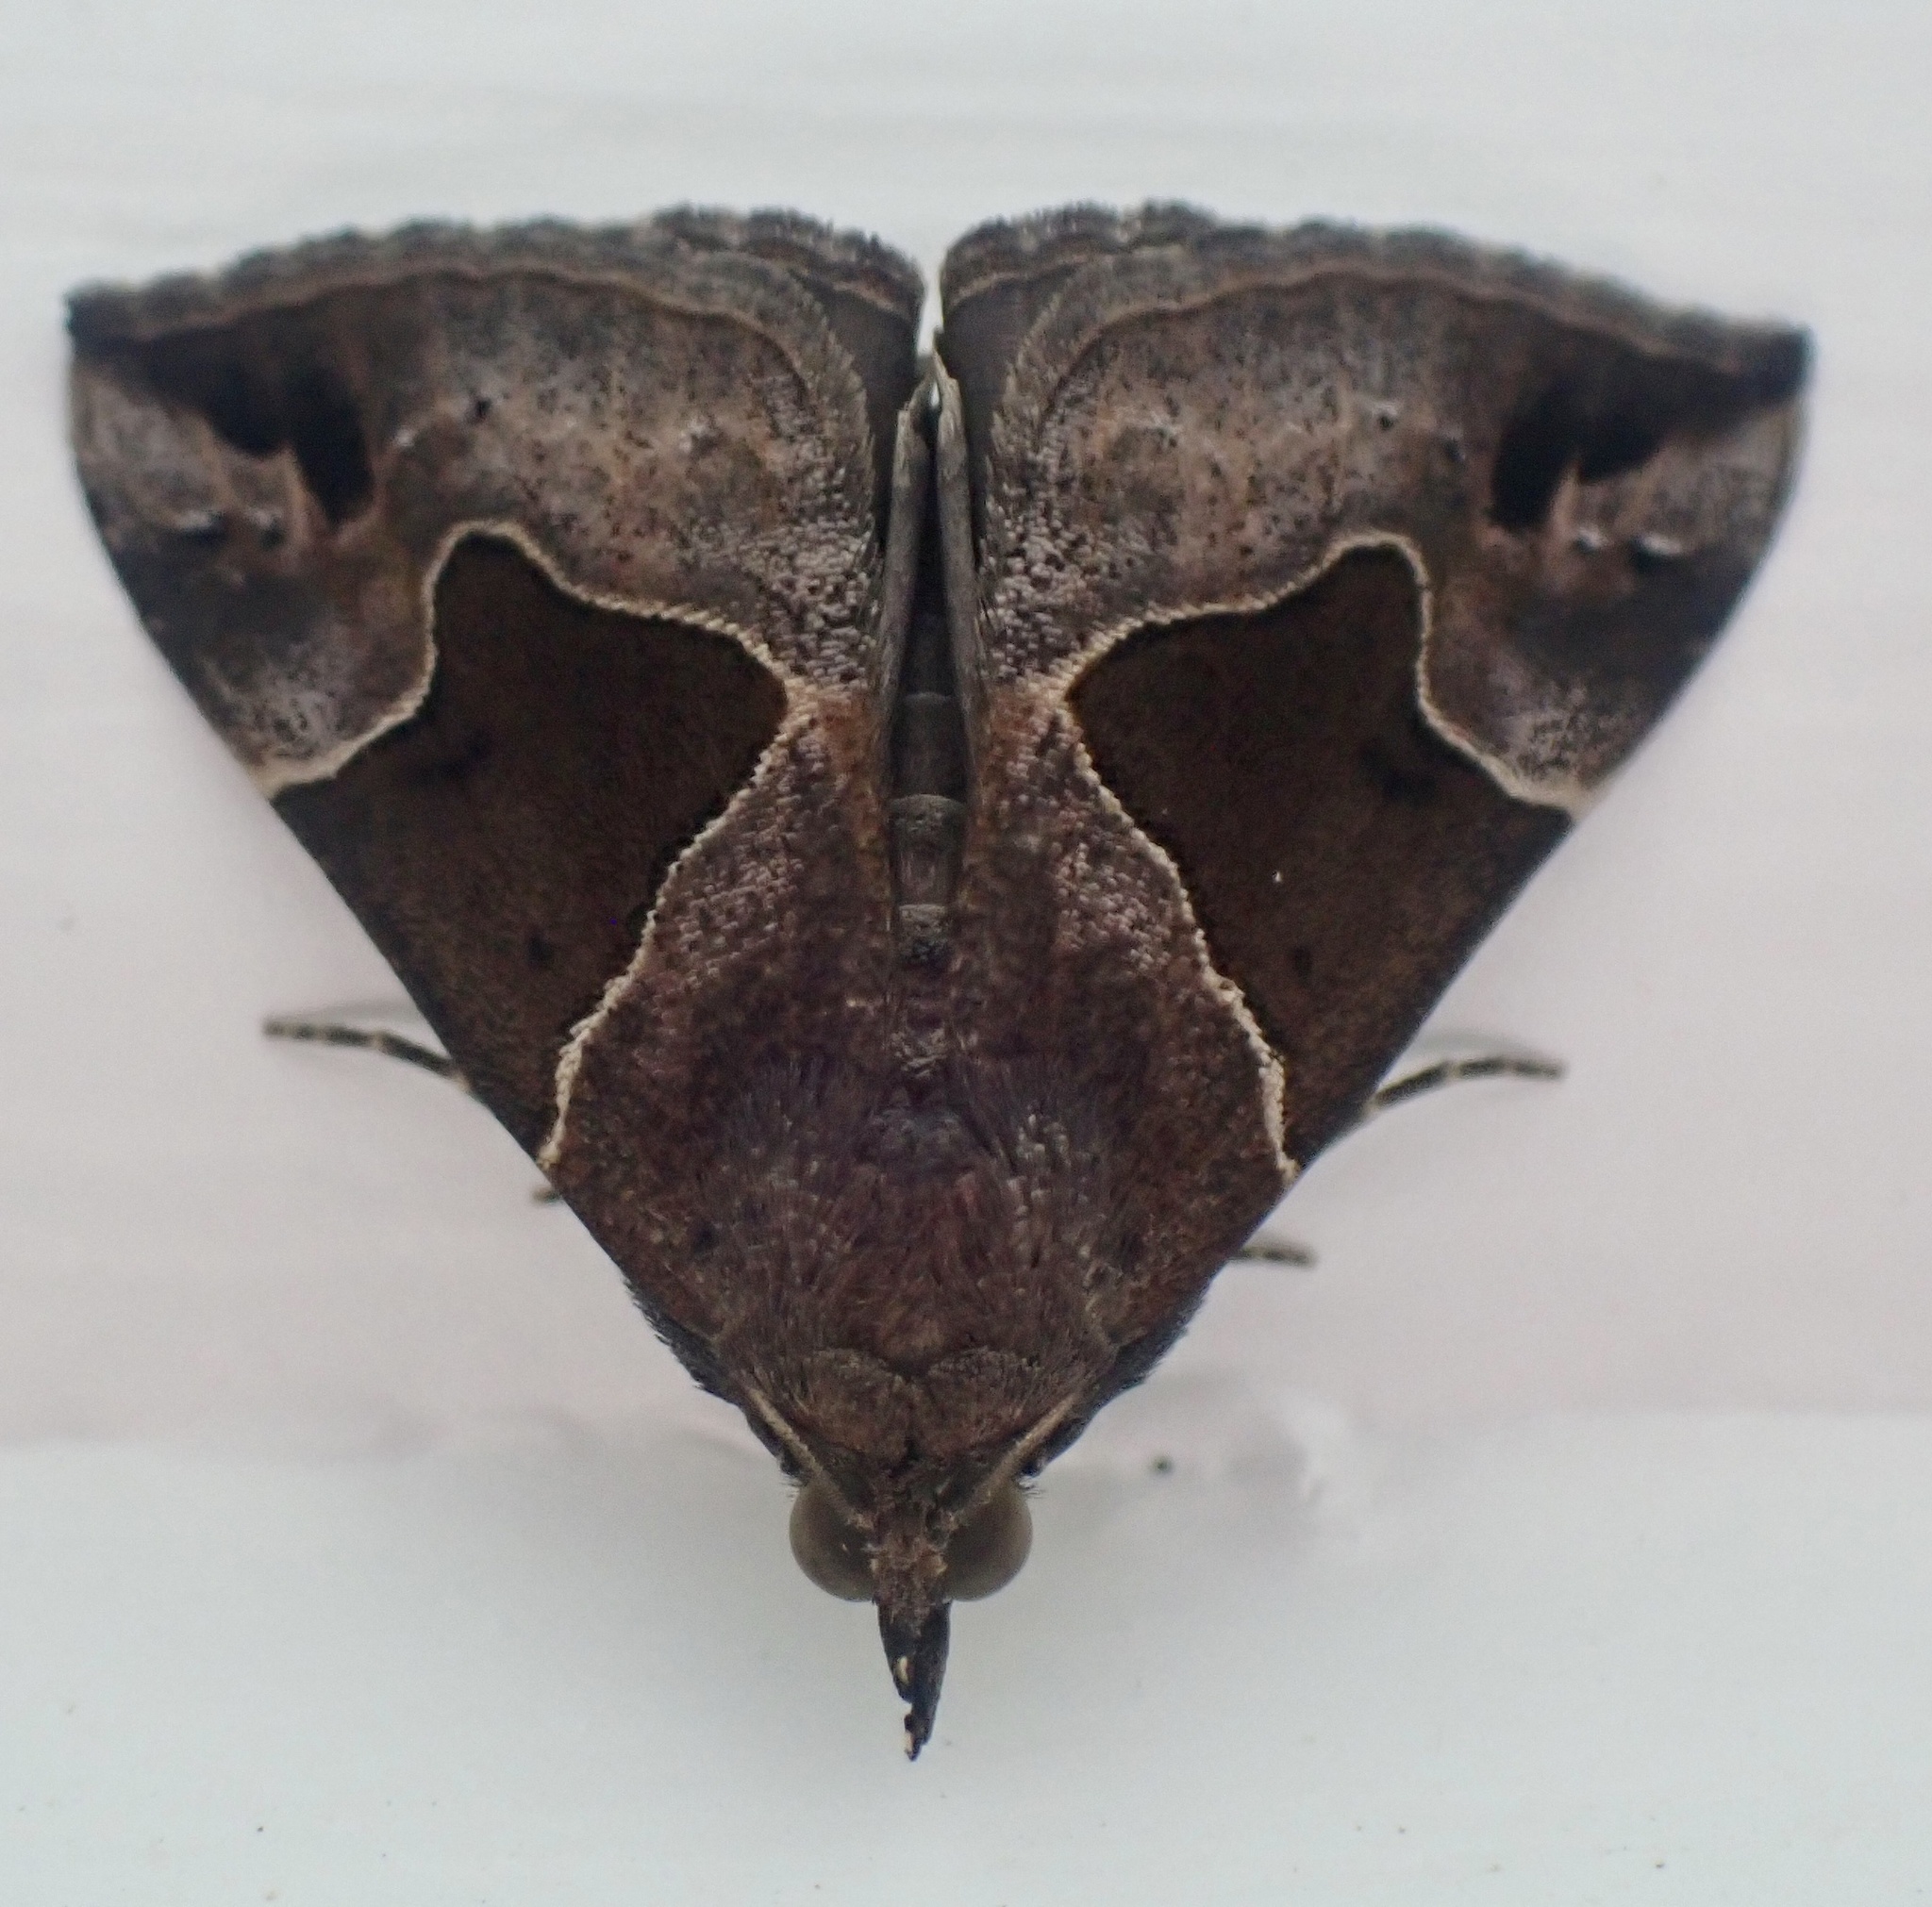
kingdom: Animalia
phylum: Arthropoda
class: Insecta
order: Lepidoptera
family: Erebidae
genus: Hypena
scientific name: Hypena manalis
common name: Flowing-line bomolocha moth
